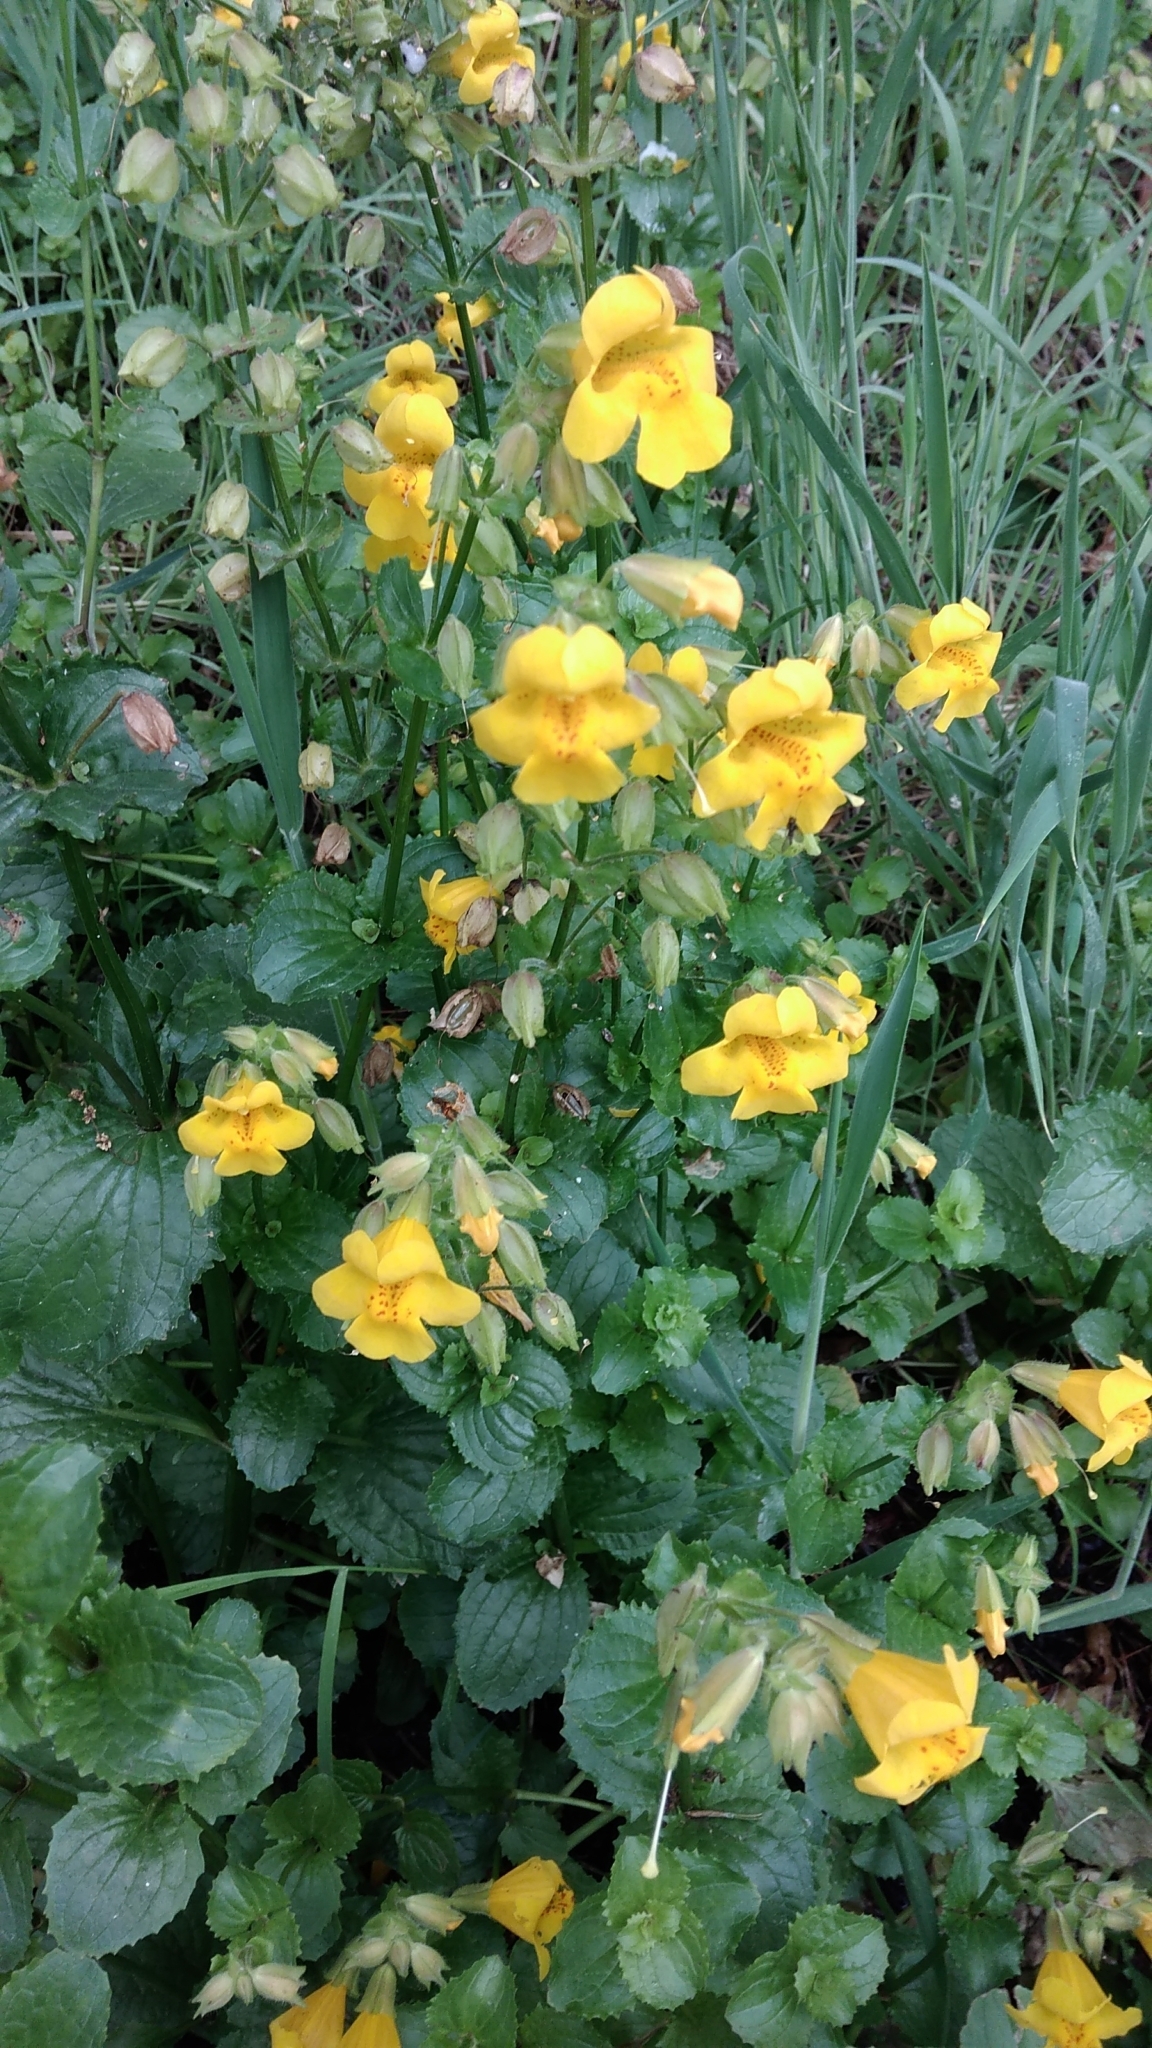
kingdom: Plantae
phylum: Tracheophyta
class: Magnoliopsida
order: Lamiales
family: Phrymaceae
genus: Erythranthe
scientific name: Erythranthe guttata
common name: Monkeyflower
